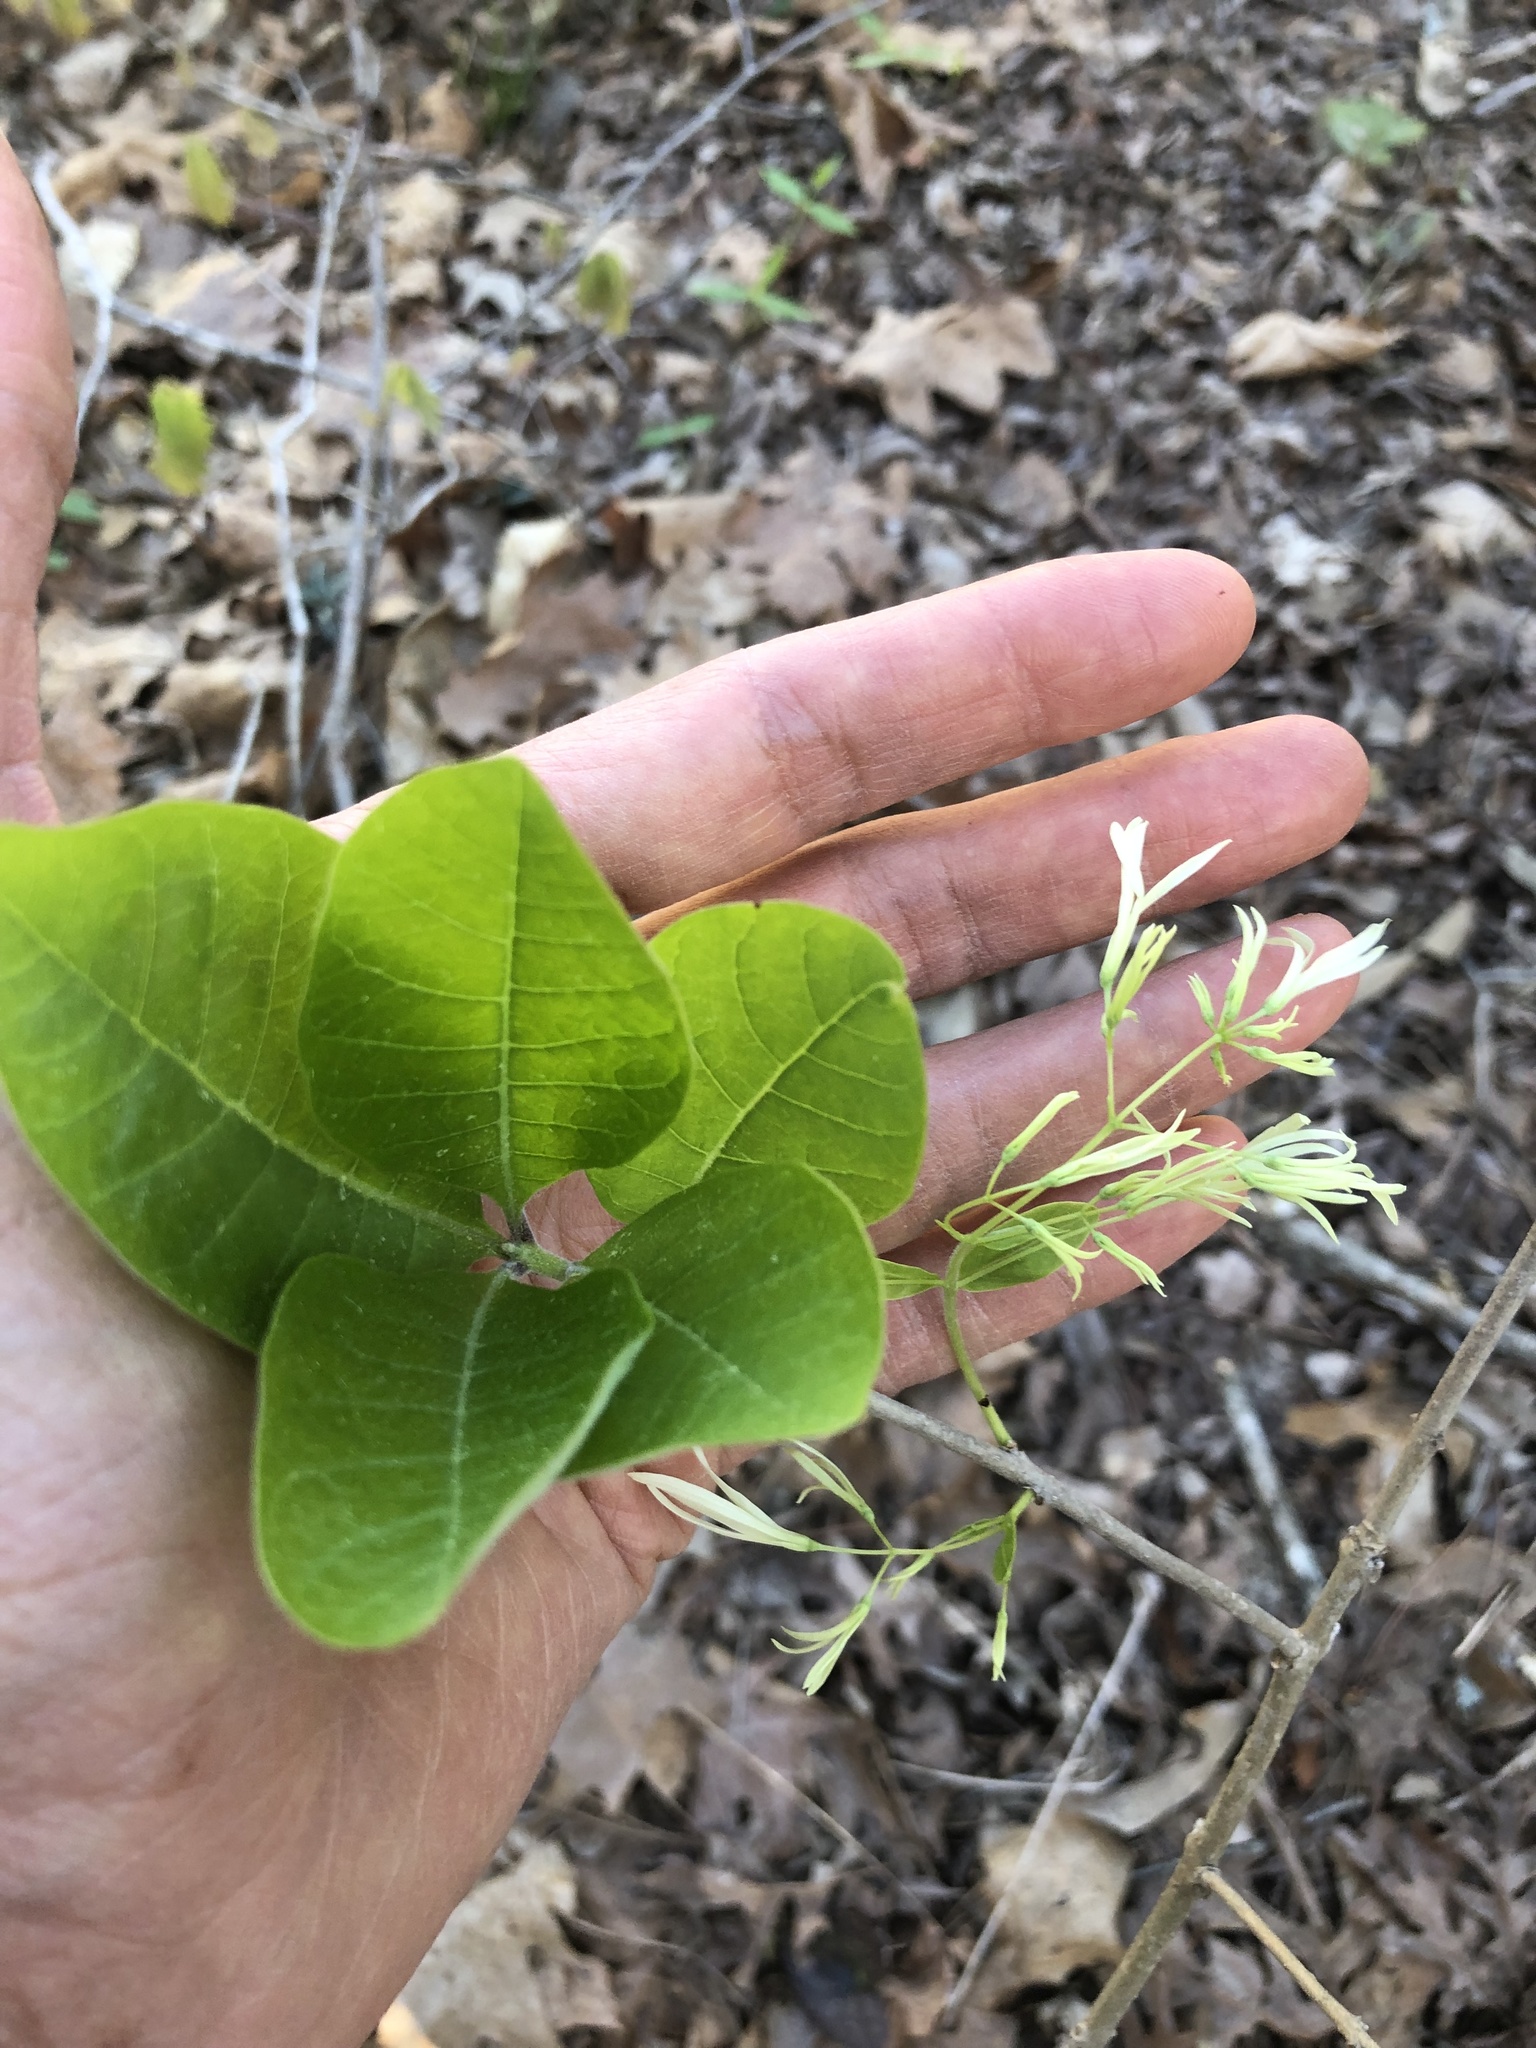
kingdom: Plantae
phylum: Tracheophyta
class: Magnoliopsida
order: Lamiales
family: Oleaceae
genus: Chionanthus
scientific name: Chionanthus virginicus
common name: American fringetree
